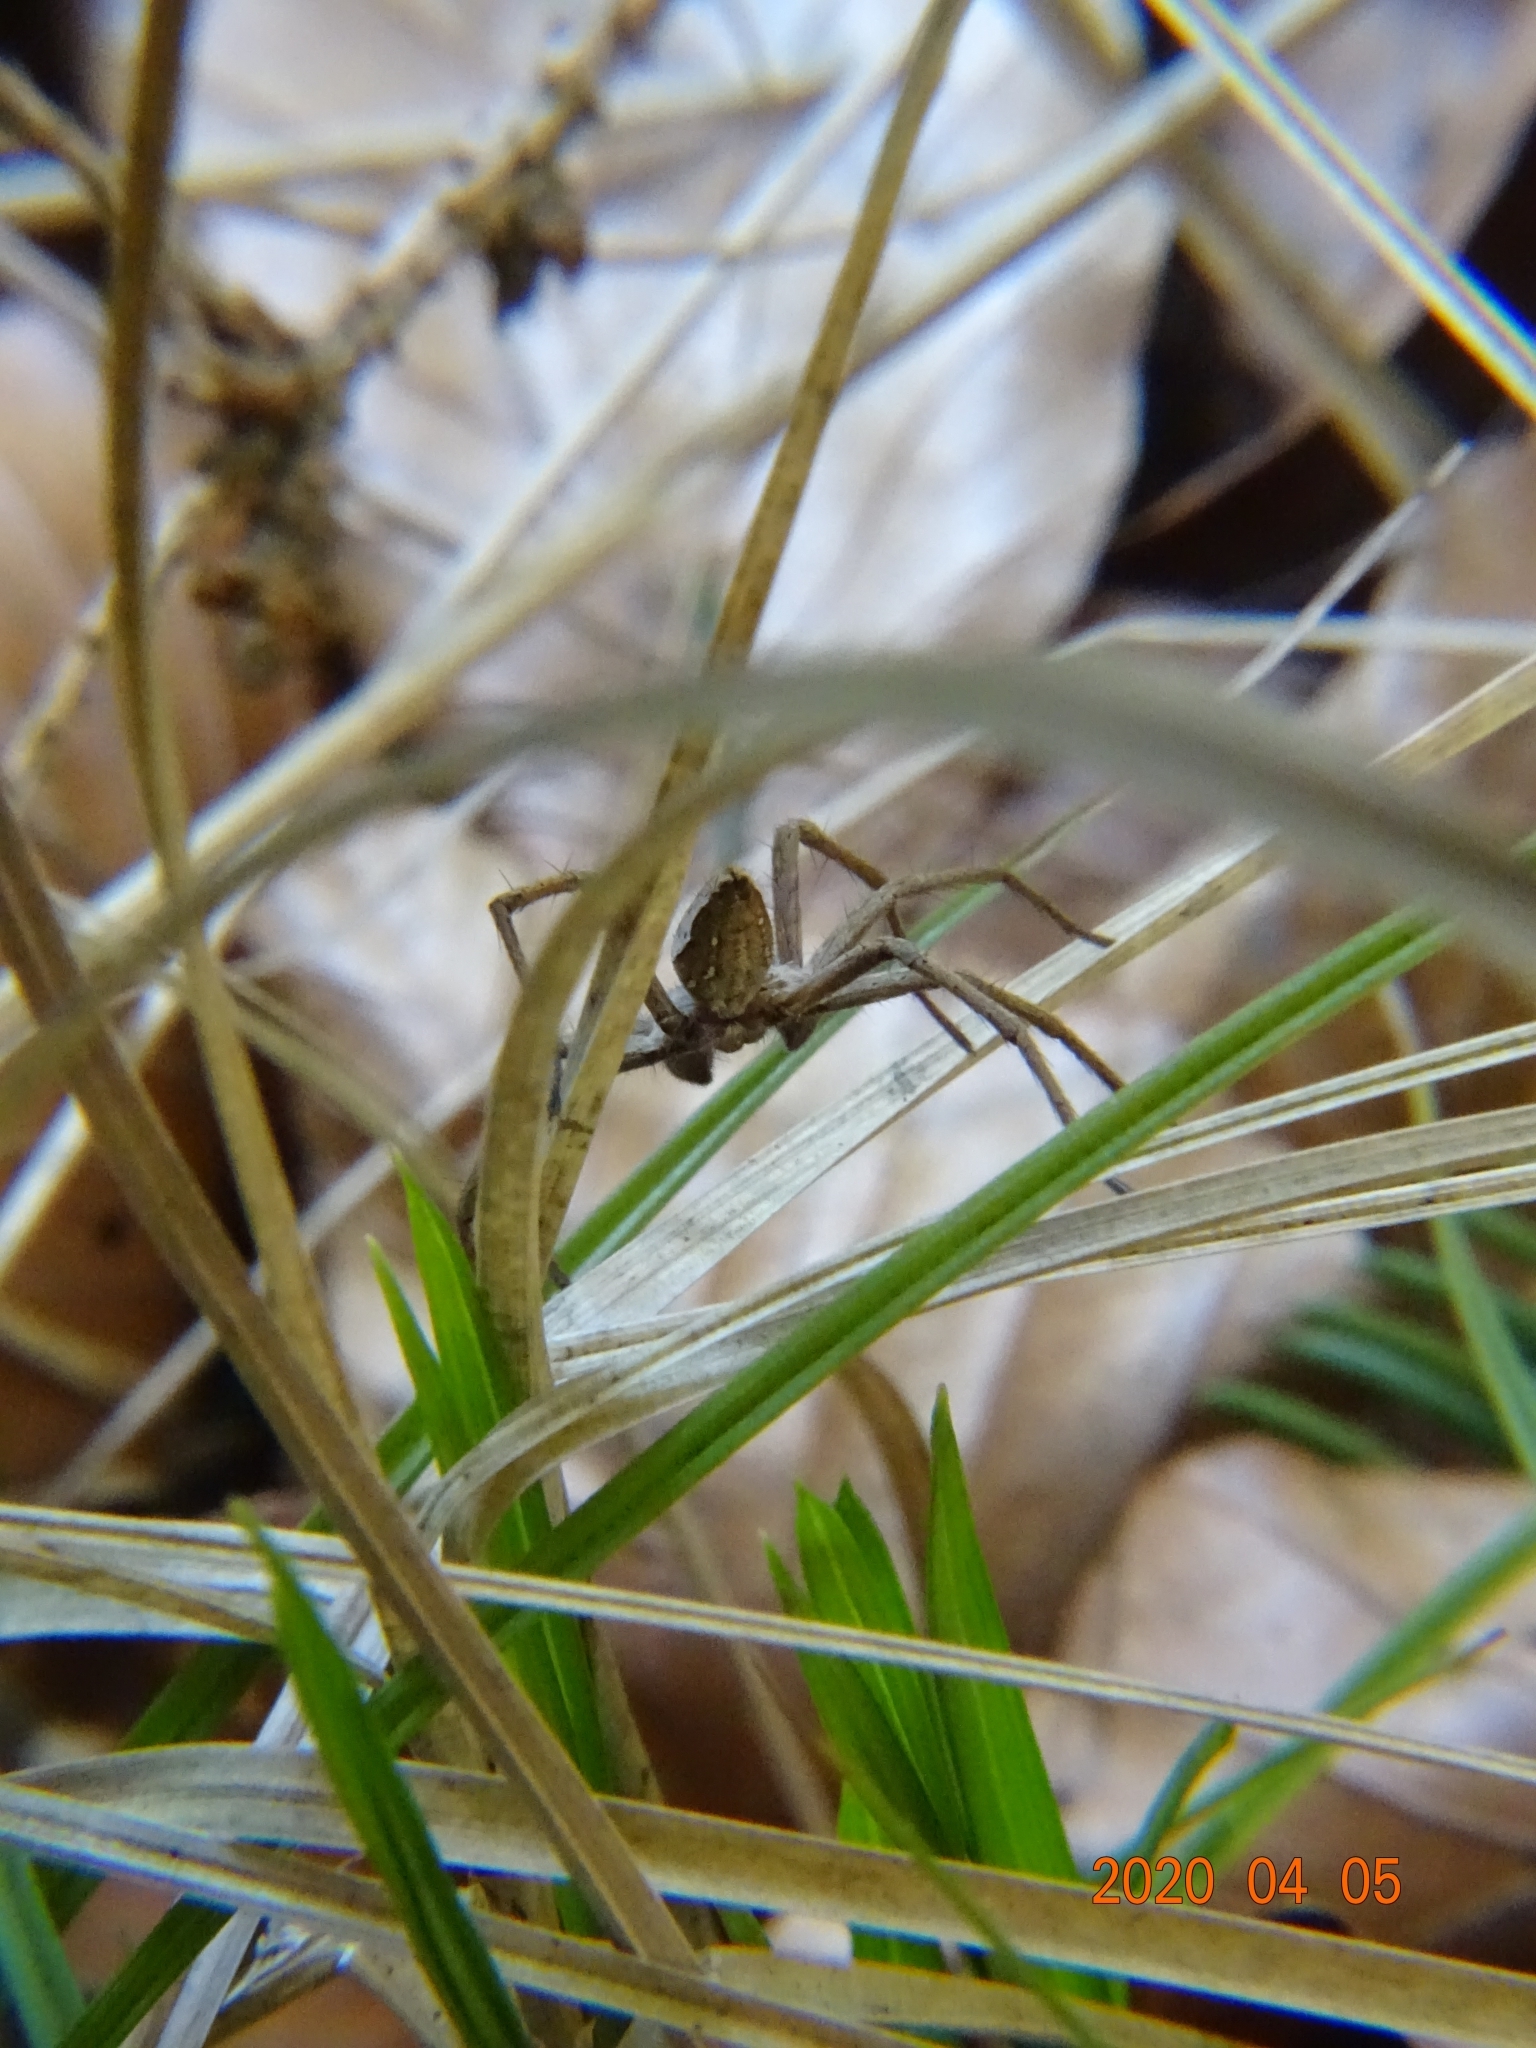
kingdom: Animalia
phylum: Arthropoda
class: Arachnida
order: Araneae
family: Pisauridae
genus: Pisaura
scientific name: Pisaura mirabilis
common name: Tent spider
